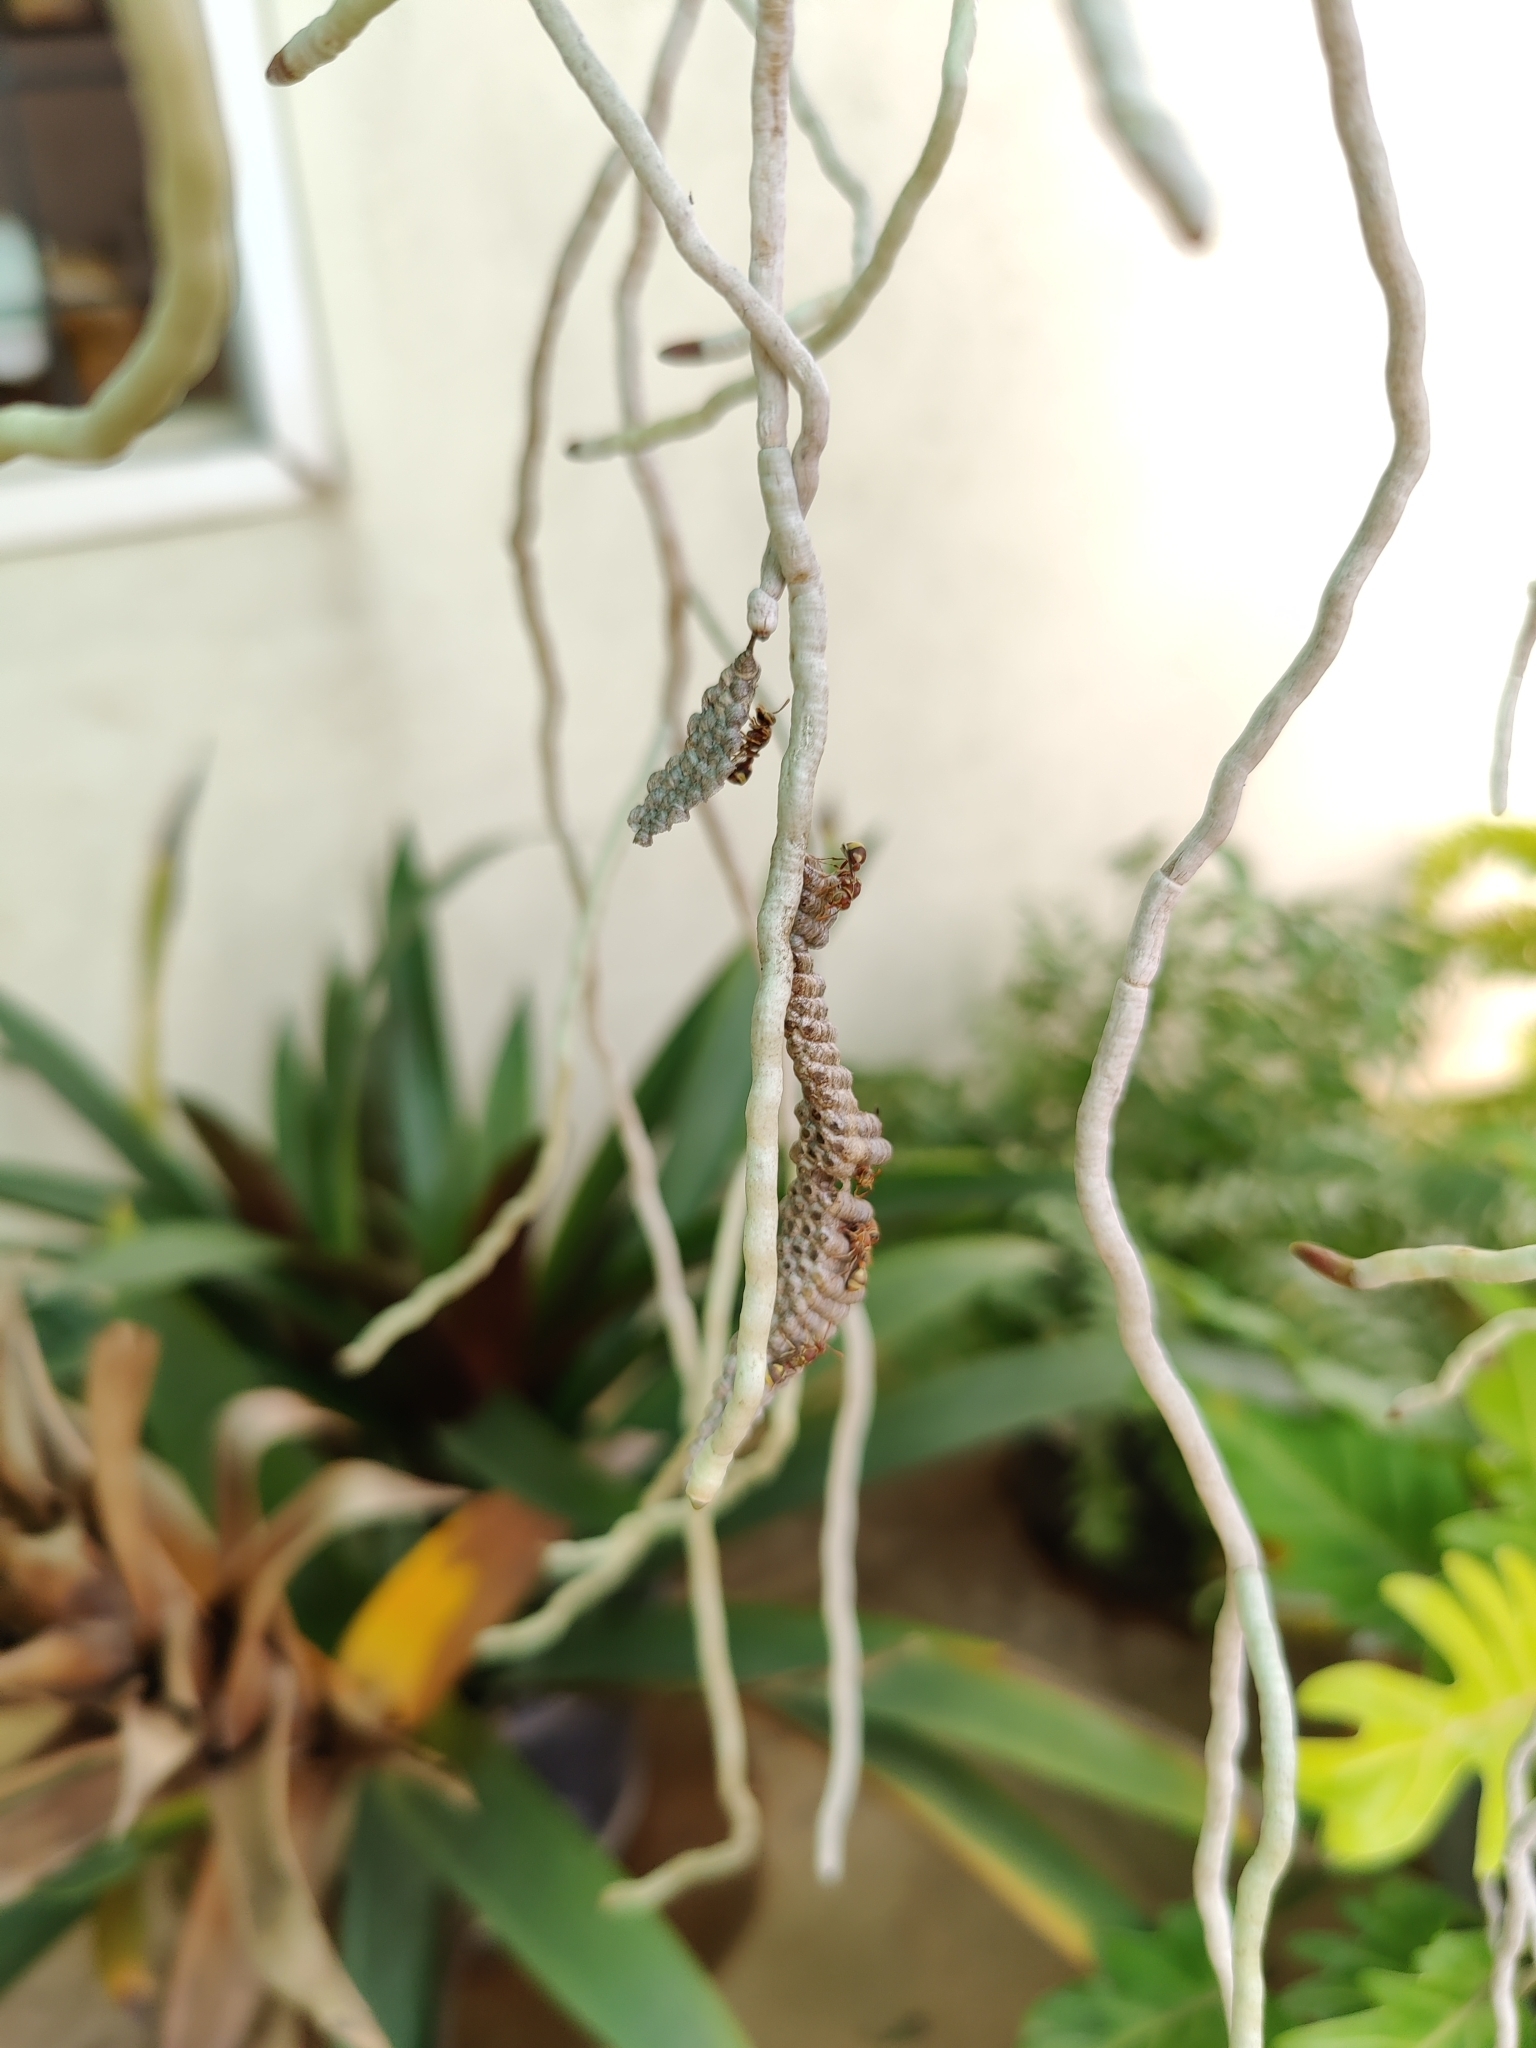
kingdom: Animalia
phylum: Arthropoda
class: Insecta
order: Hymenoptera
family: Vespidae
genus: Ropalidia
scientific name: Ropalidia variegata
